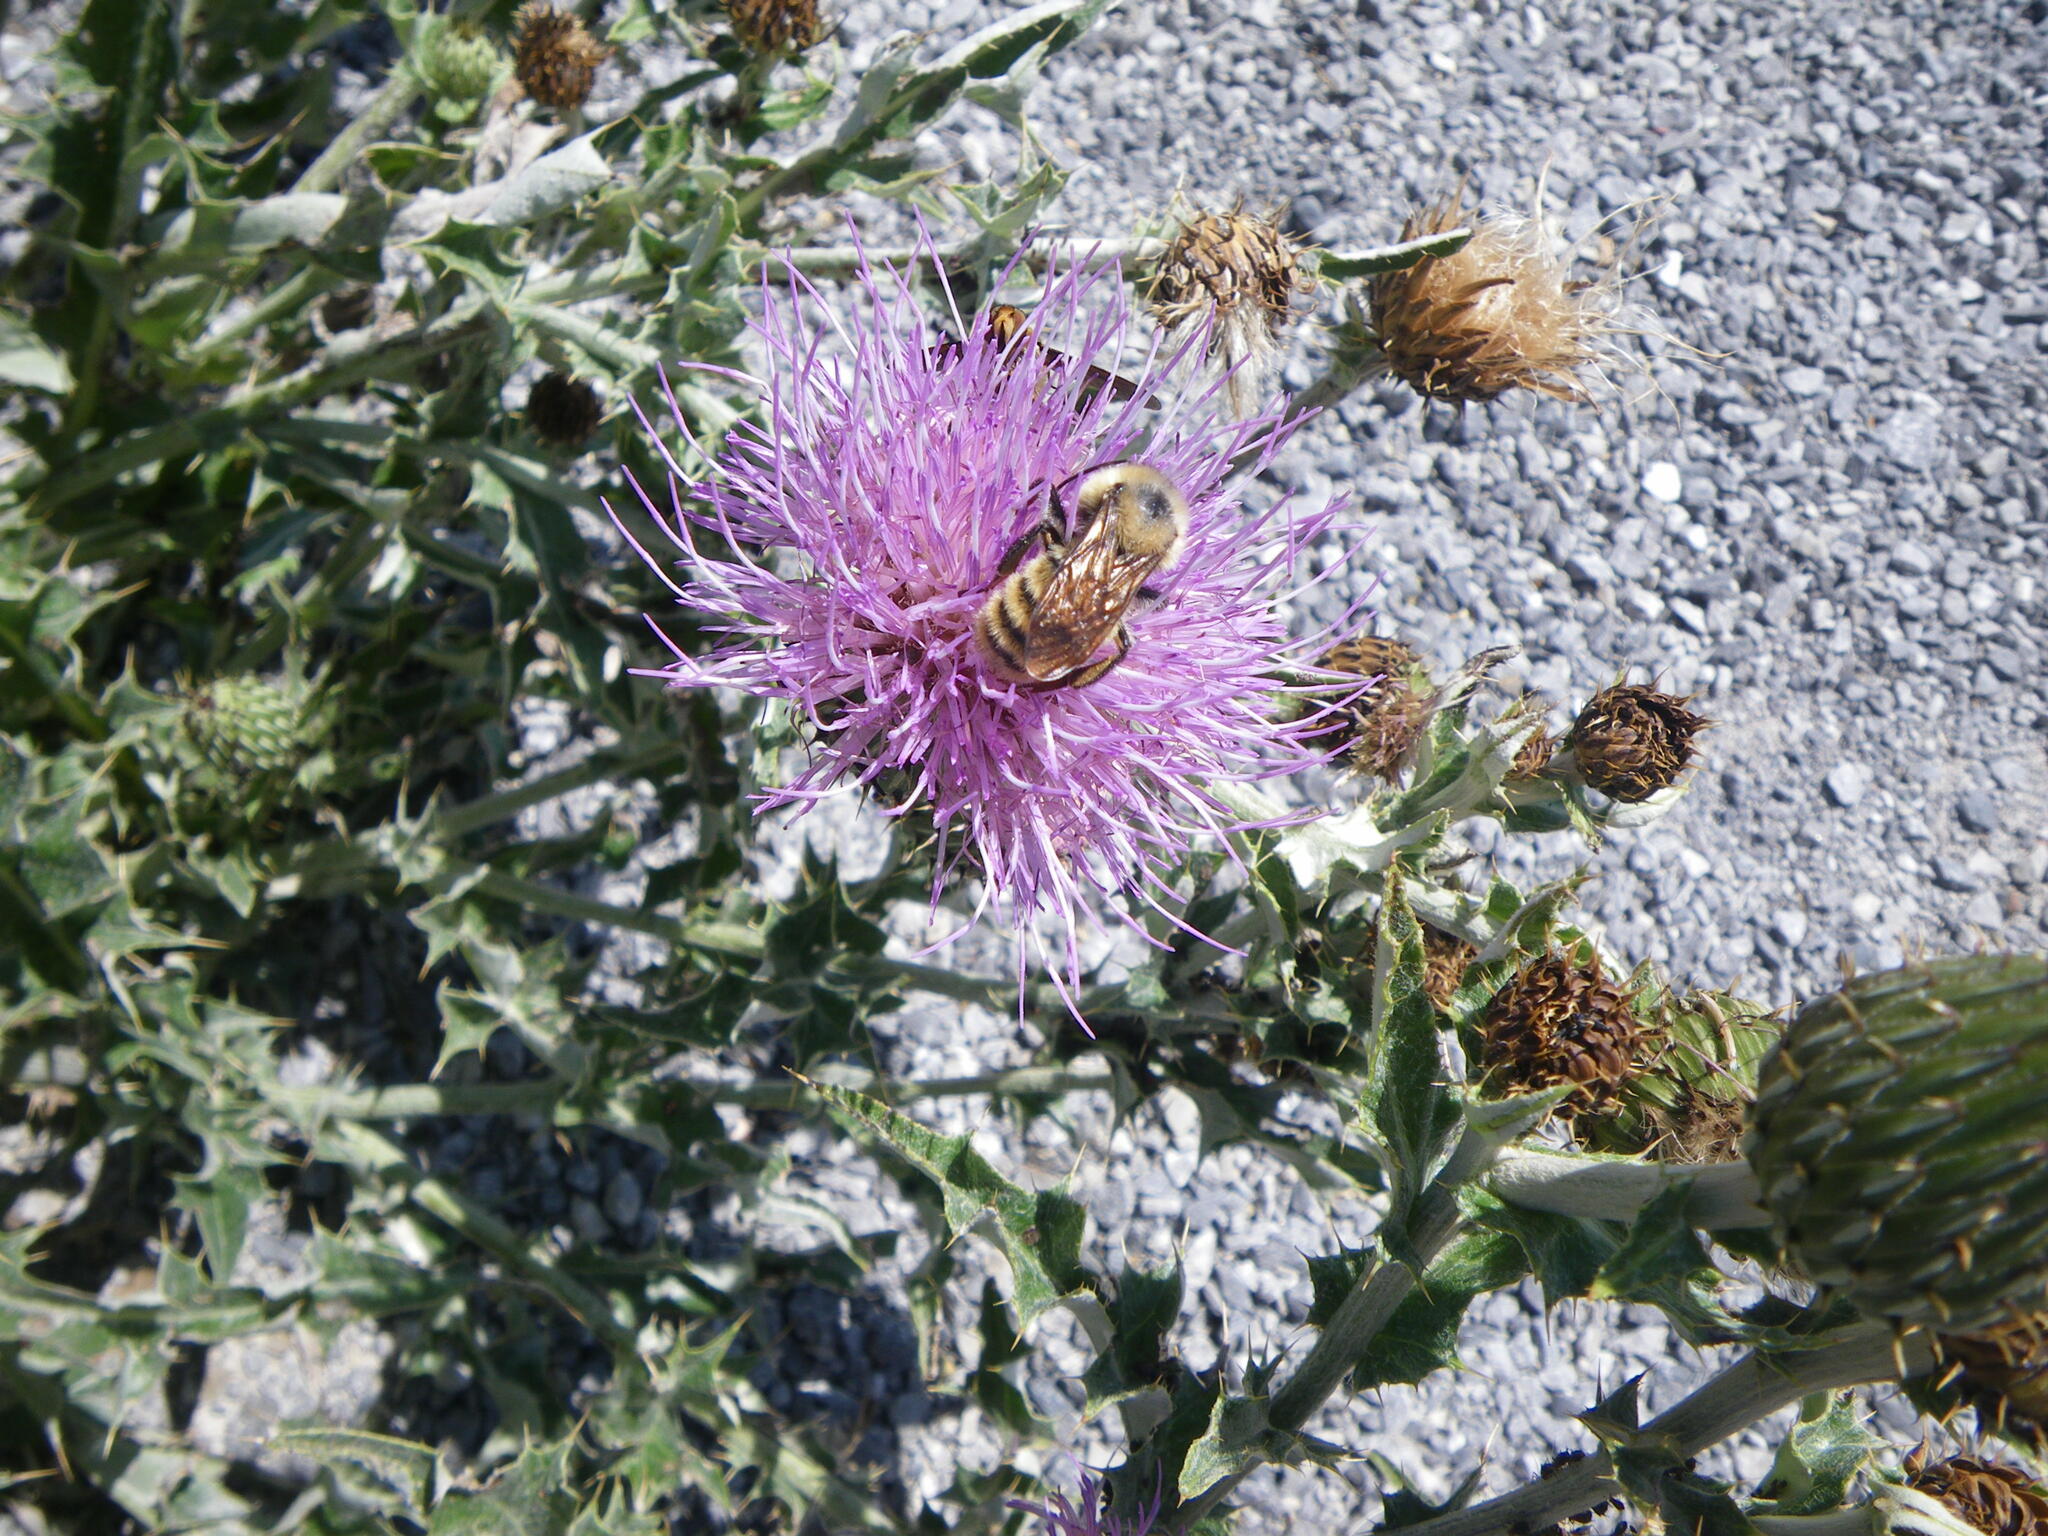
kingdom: Plantae
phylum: Tracheophyta
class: Magnoliopsida
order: Asterales
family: Asteraceae
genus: Cirsium
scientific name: Cirsium undulatum
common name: Pasture thistle
